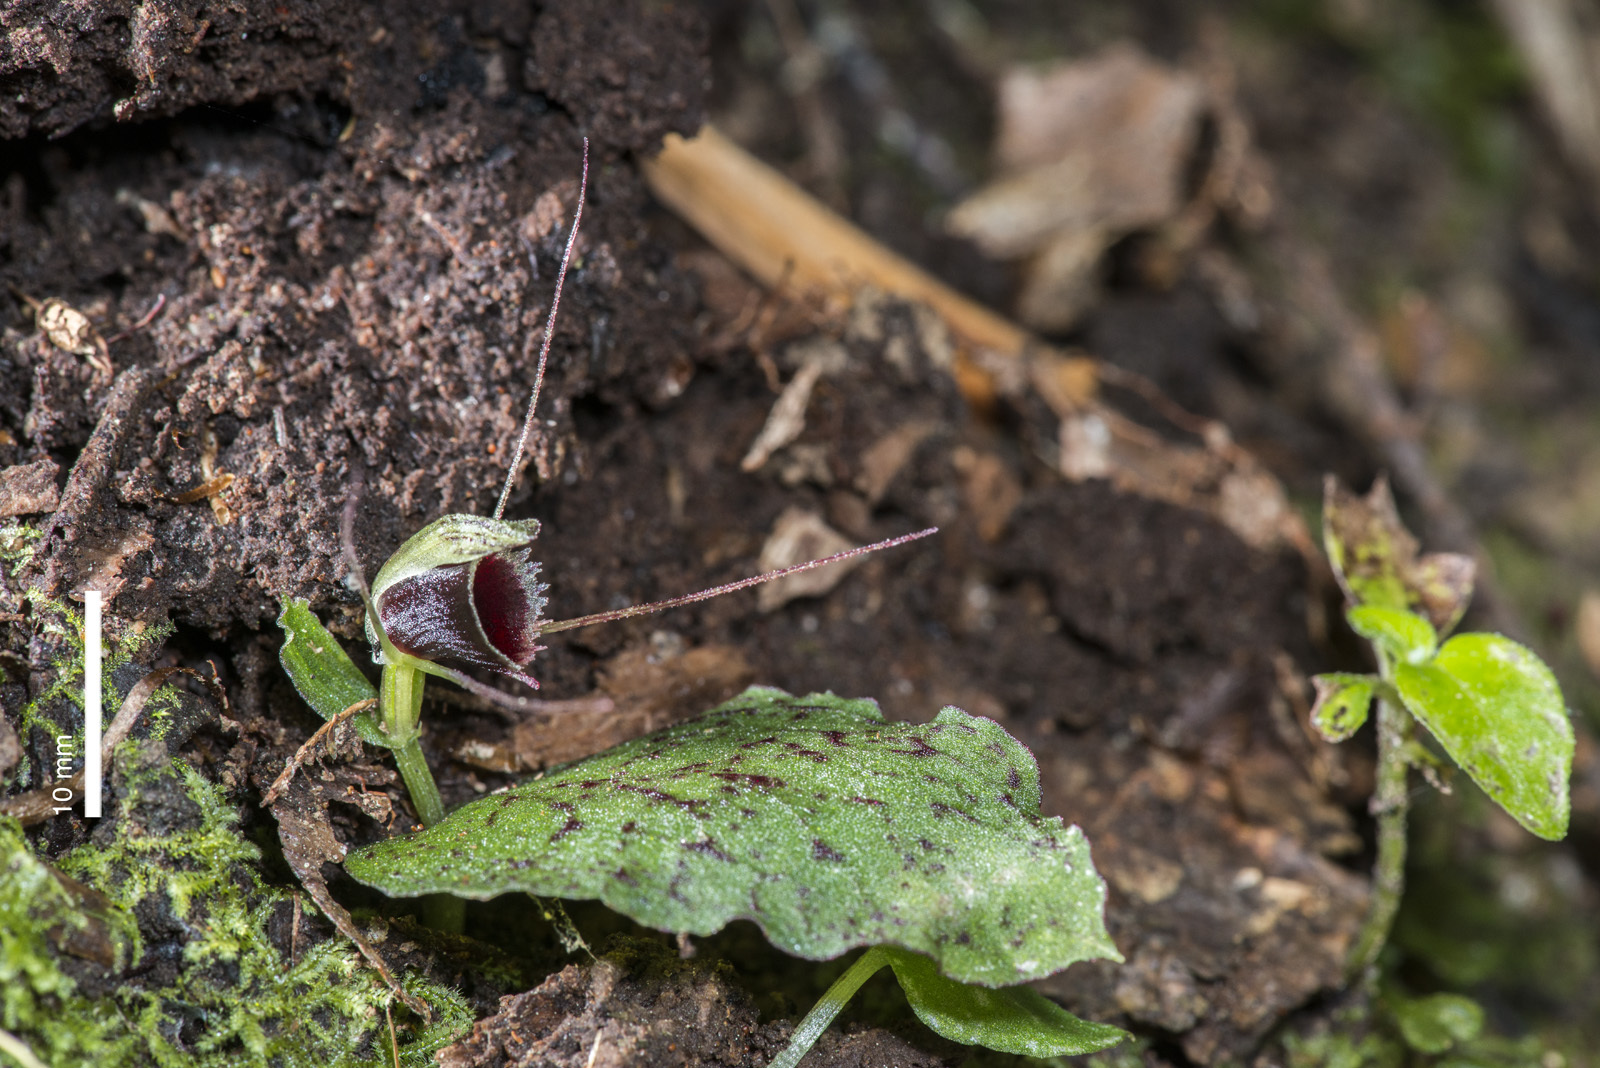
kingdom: Plantae
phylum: Tracheophyta
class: Liliopsida
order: Asparagales
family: Orchidaceae
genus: Corybas
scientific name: Corybas oblongus
